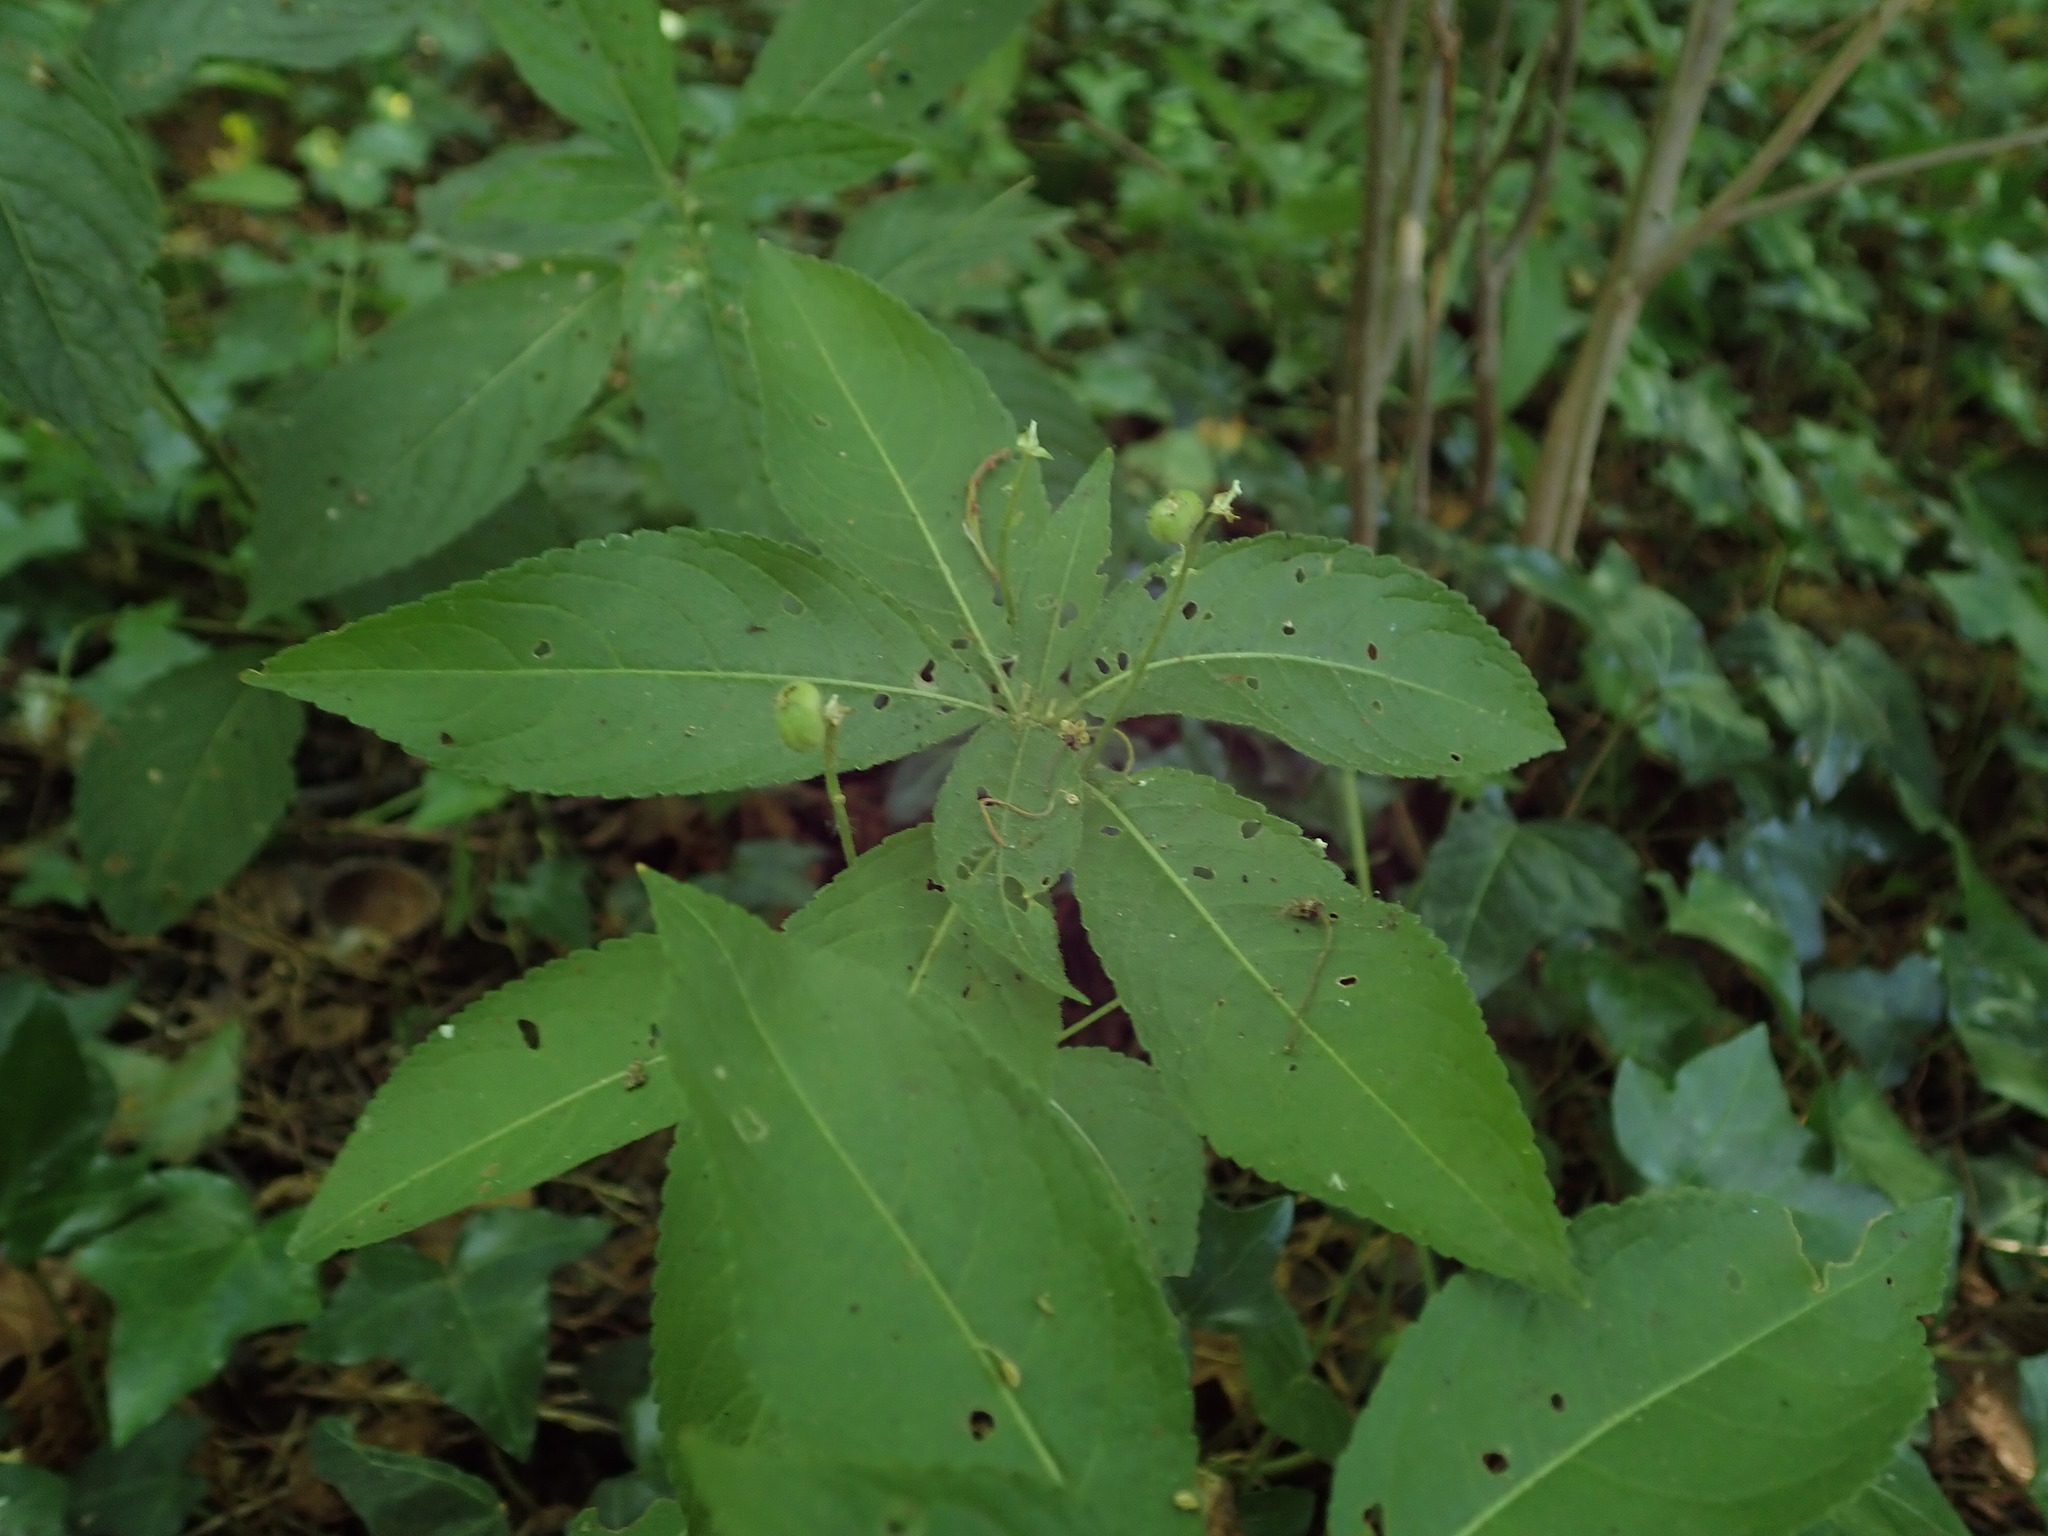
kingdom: Plantae
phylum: Tracheophyta
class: Magnoliopsida
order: Malpighiales
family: Euphorbiaceae
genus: Mercurialis
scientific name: Mercurialis perennis
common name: Dog mercury
